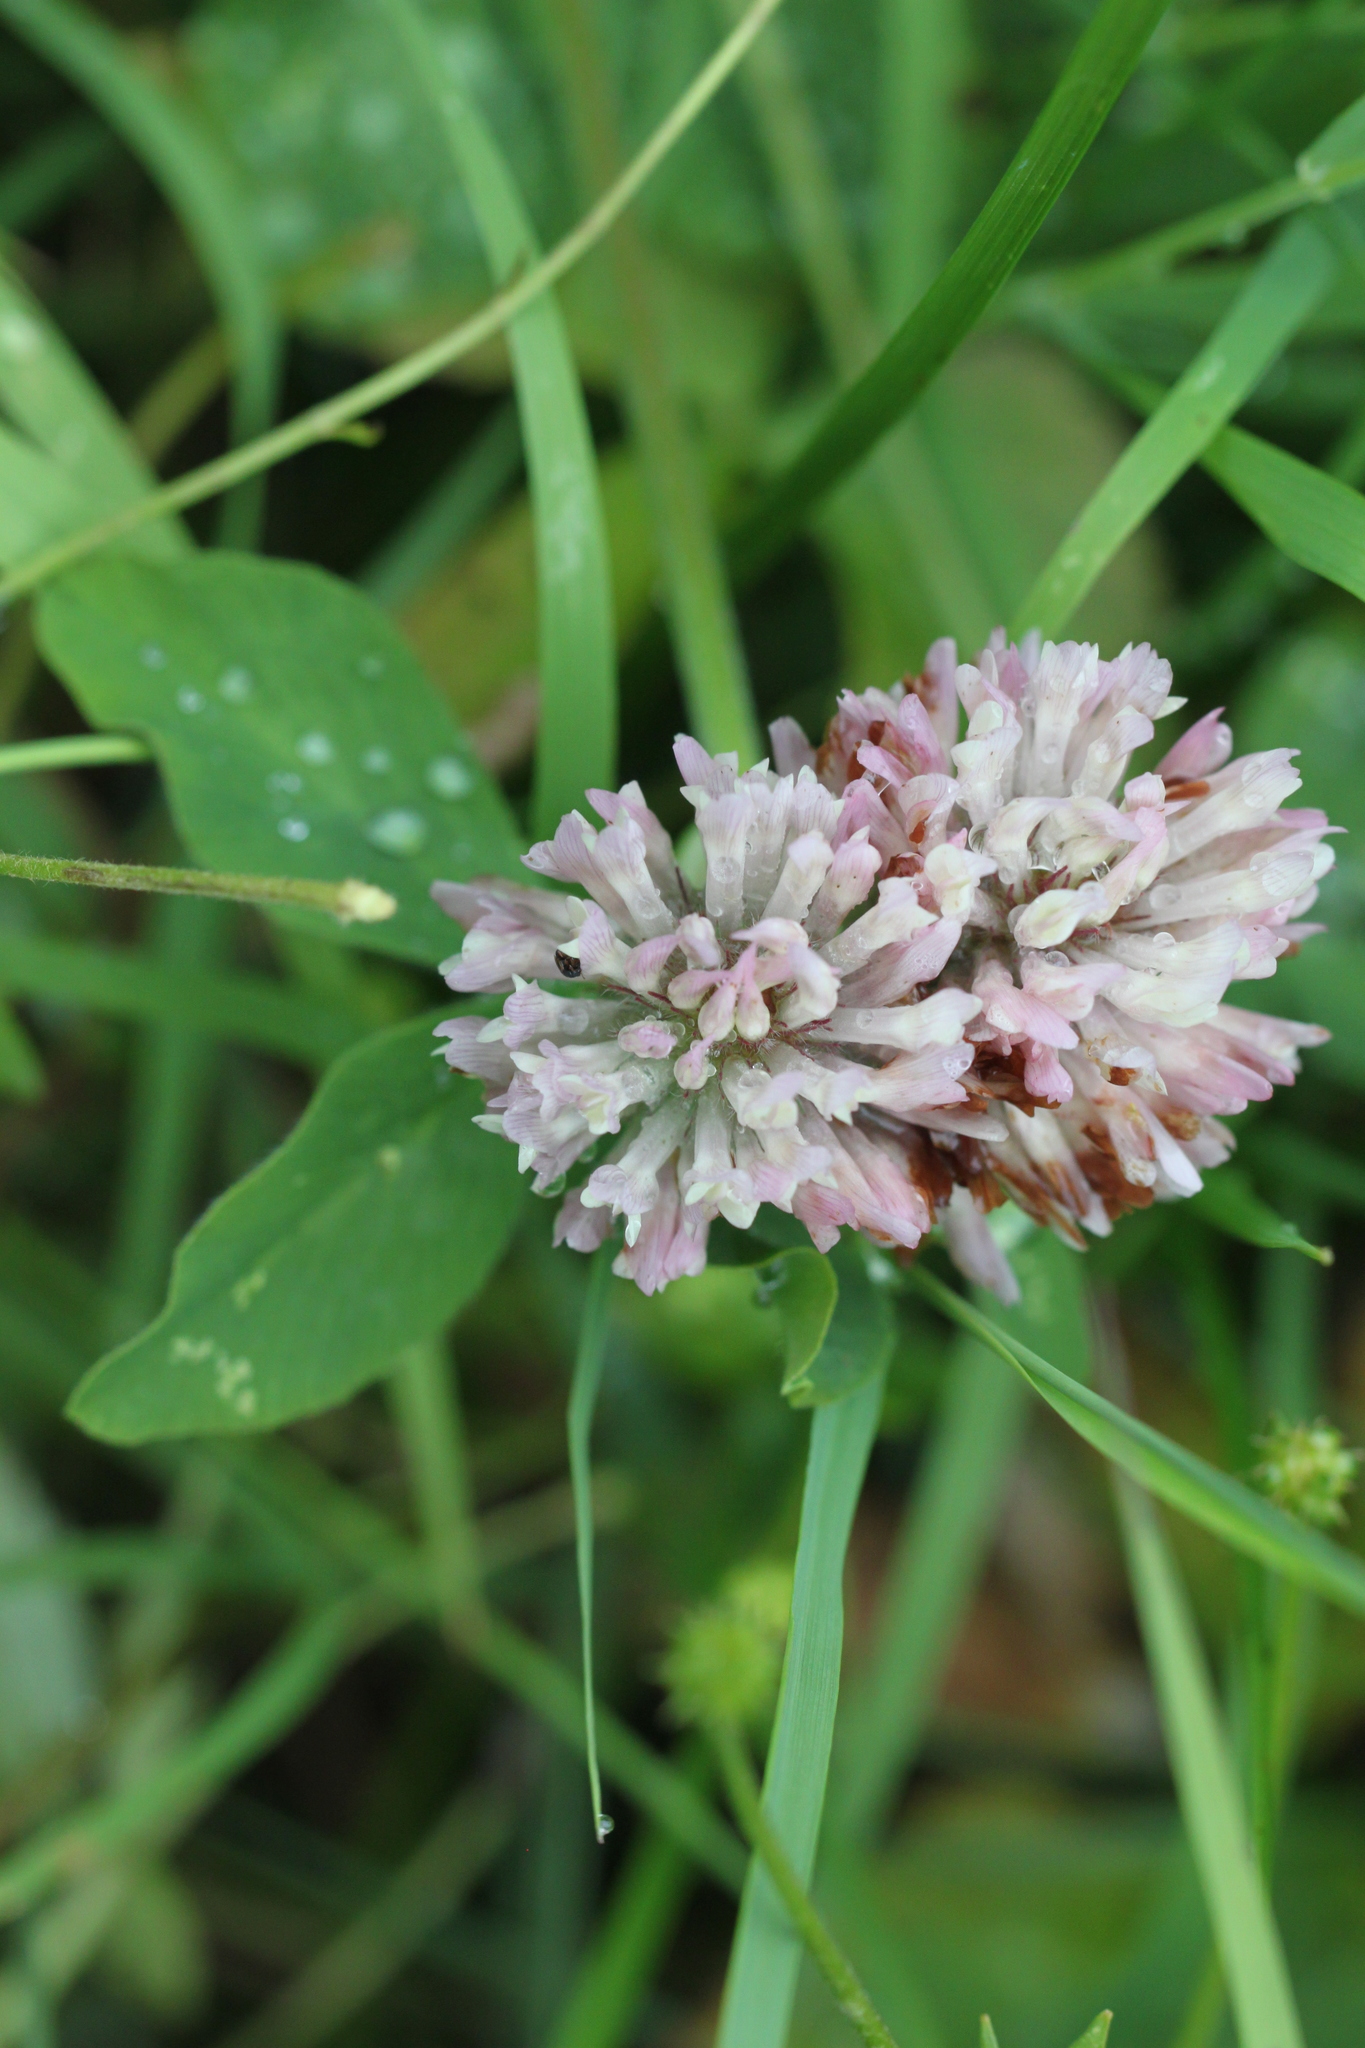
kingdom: Plantae
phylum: Tracheophyta
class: Magnoliopsida
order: Fabales
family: Fabaceae
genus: Trifolium
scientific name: Trifolium pratense
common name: Red clover
